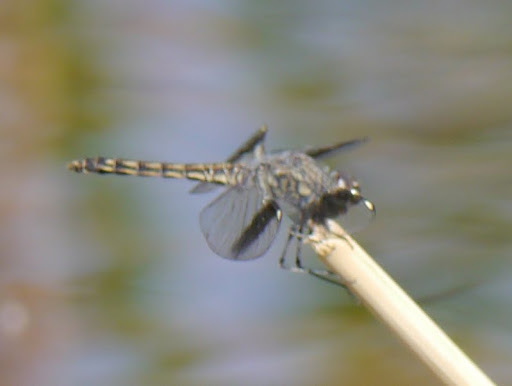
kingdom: Animalia
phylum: Arthropoda
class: Insecta
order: Odonata
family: Libellulidae
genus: Brachythemis
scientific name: Brachythemis leucosticta
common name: Banded groundling
